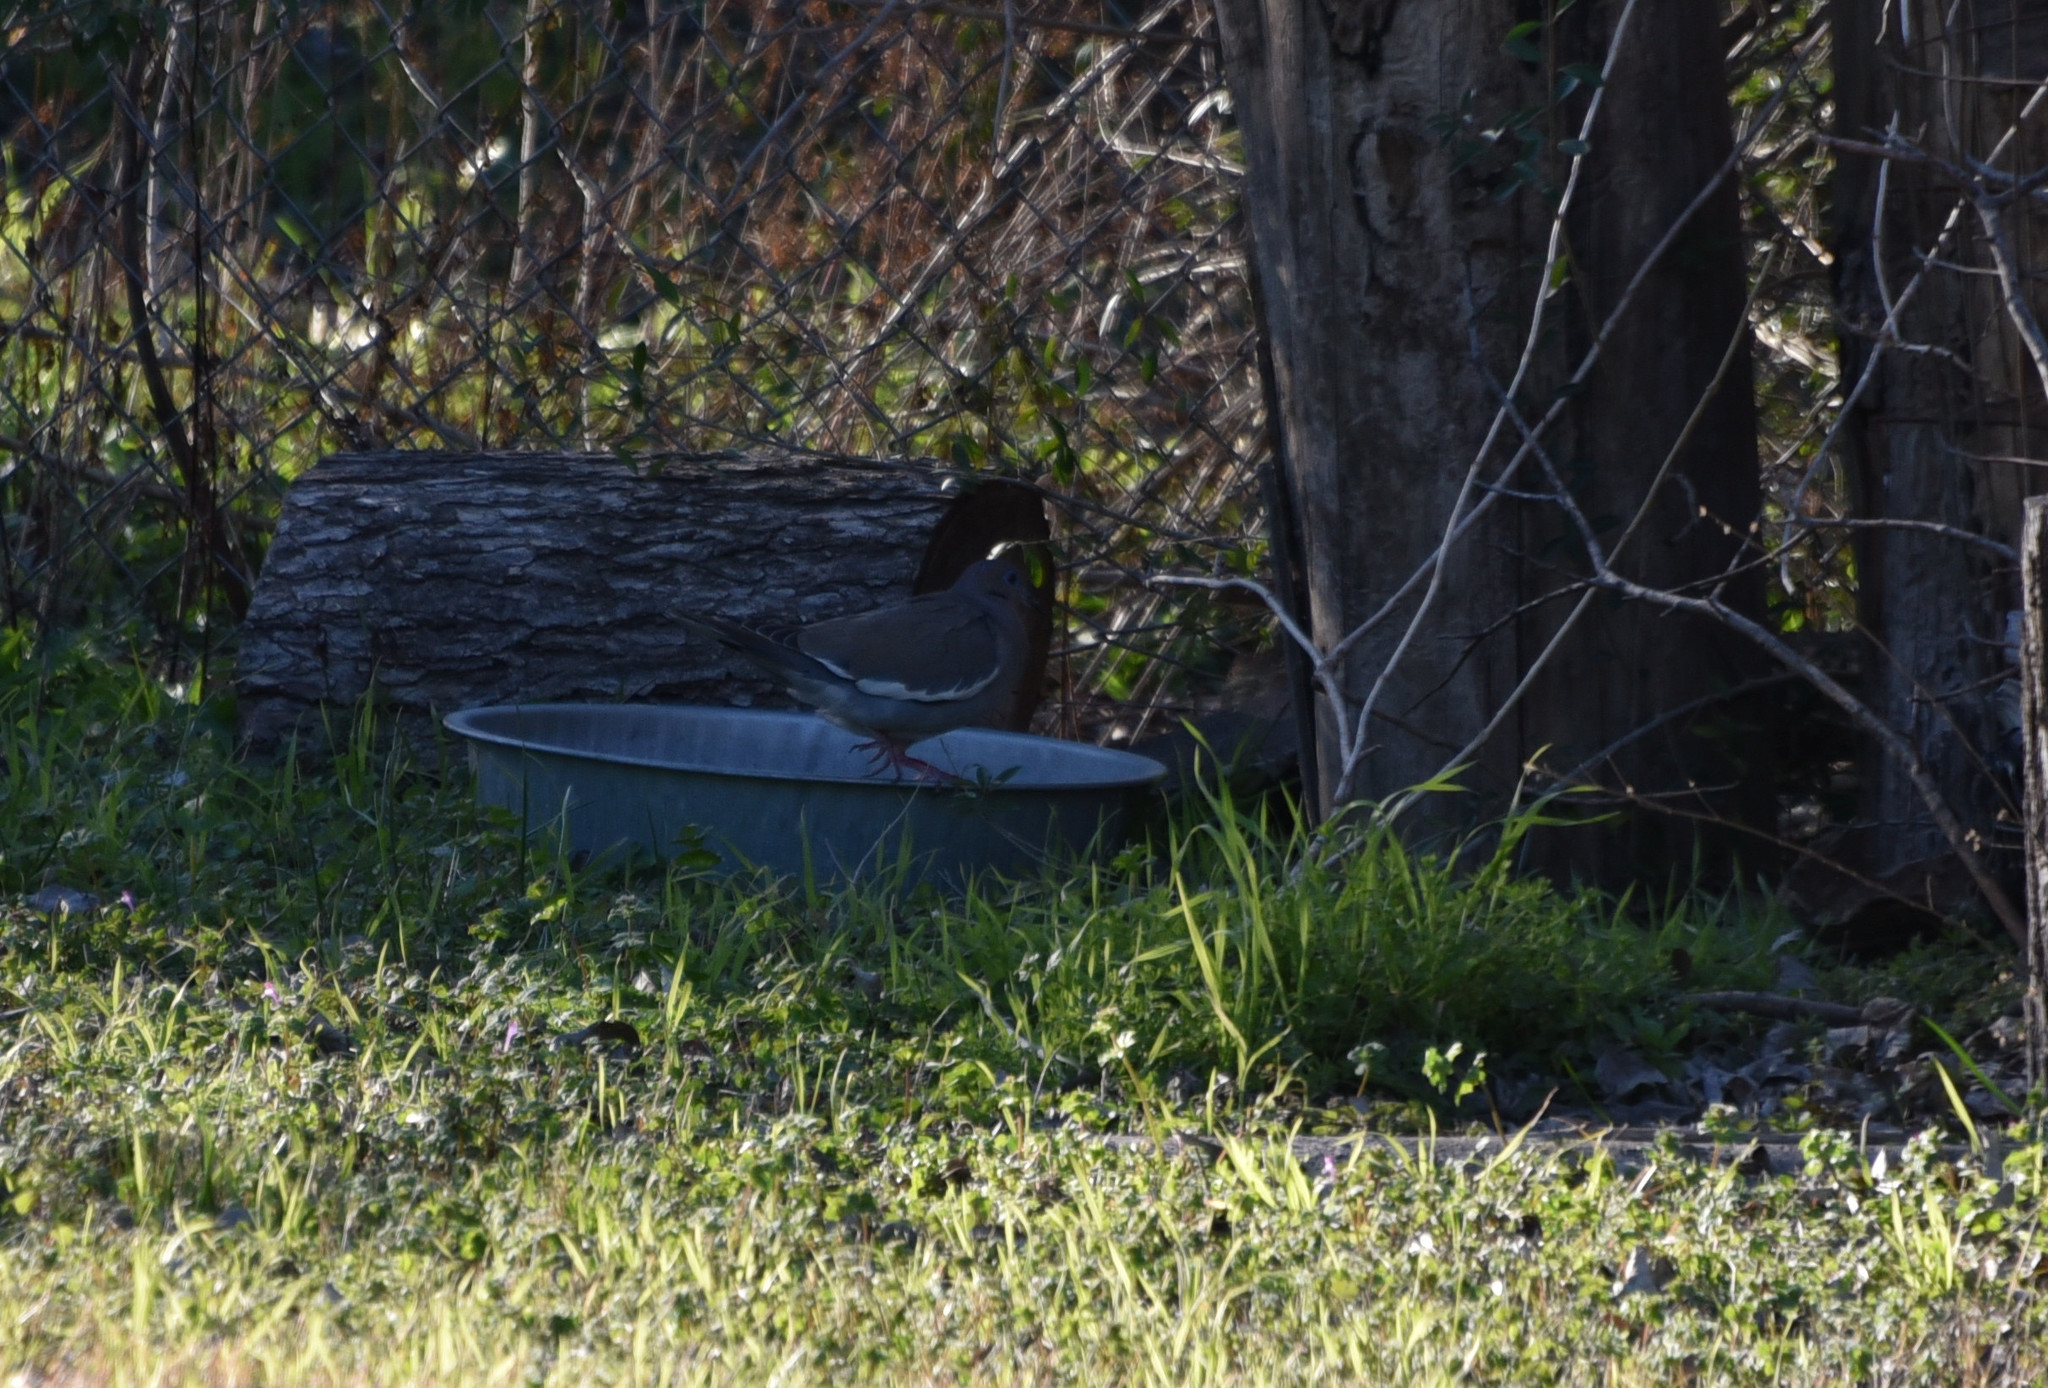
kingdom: Animalia
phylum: Chordata
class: Aves
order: Columbiformes
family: Columbidae
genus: Zenaida
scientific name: Zenaida asiatica
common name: White-winged dove
